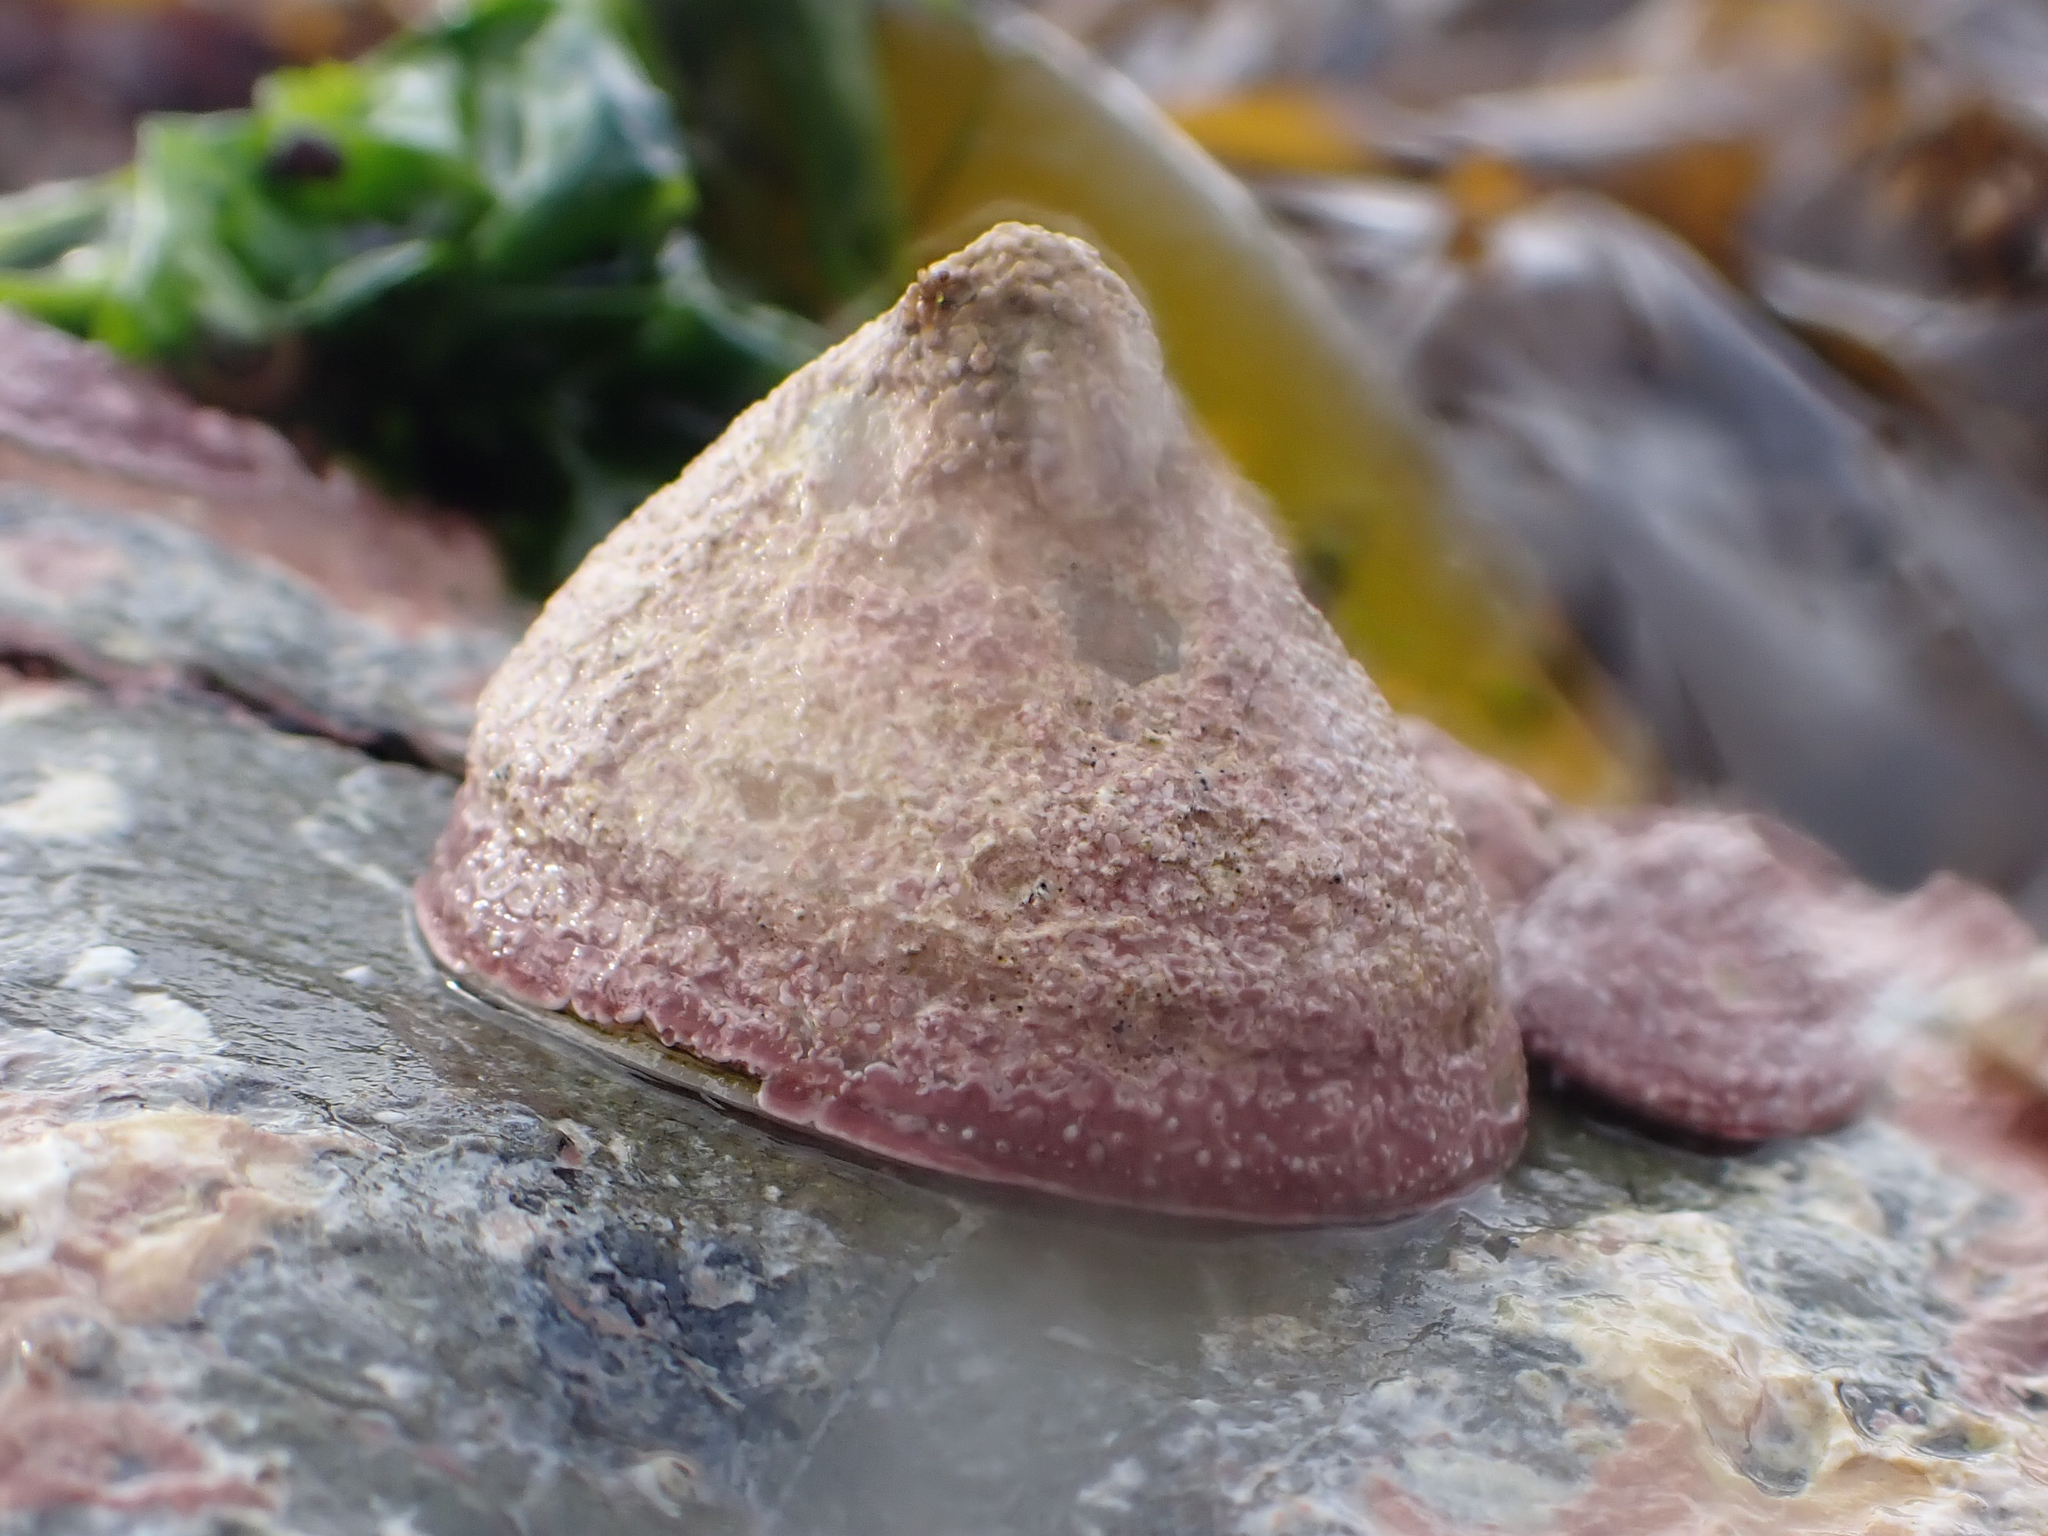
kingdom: Animalia
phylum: Mollusca
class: Gastropoda
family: Acmaeidae
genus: Acmaea
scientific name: Acmaea mitra
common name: Pacific white cap limpet
